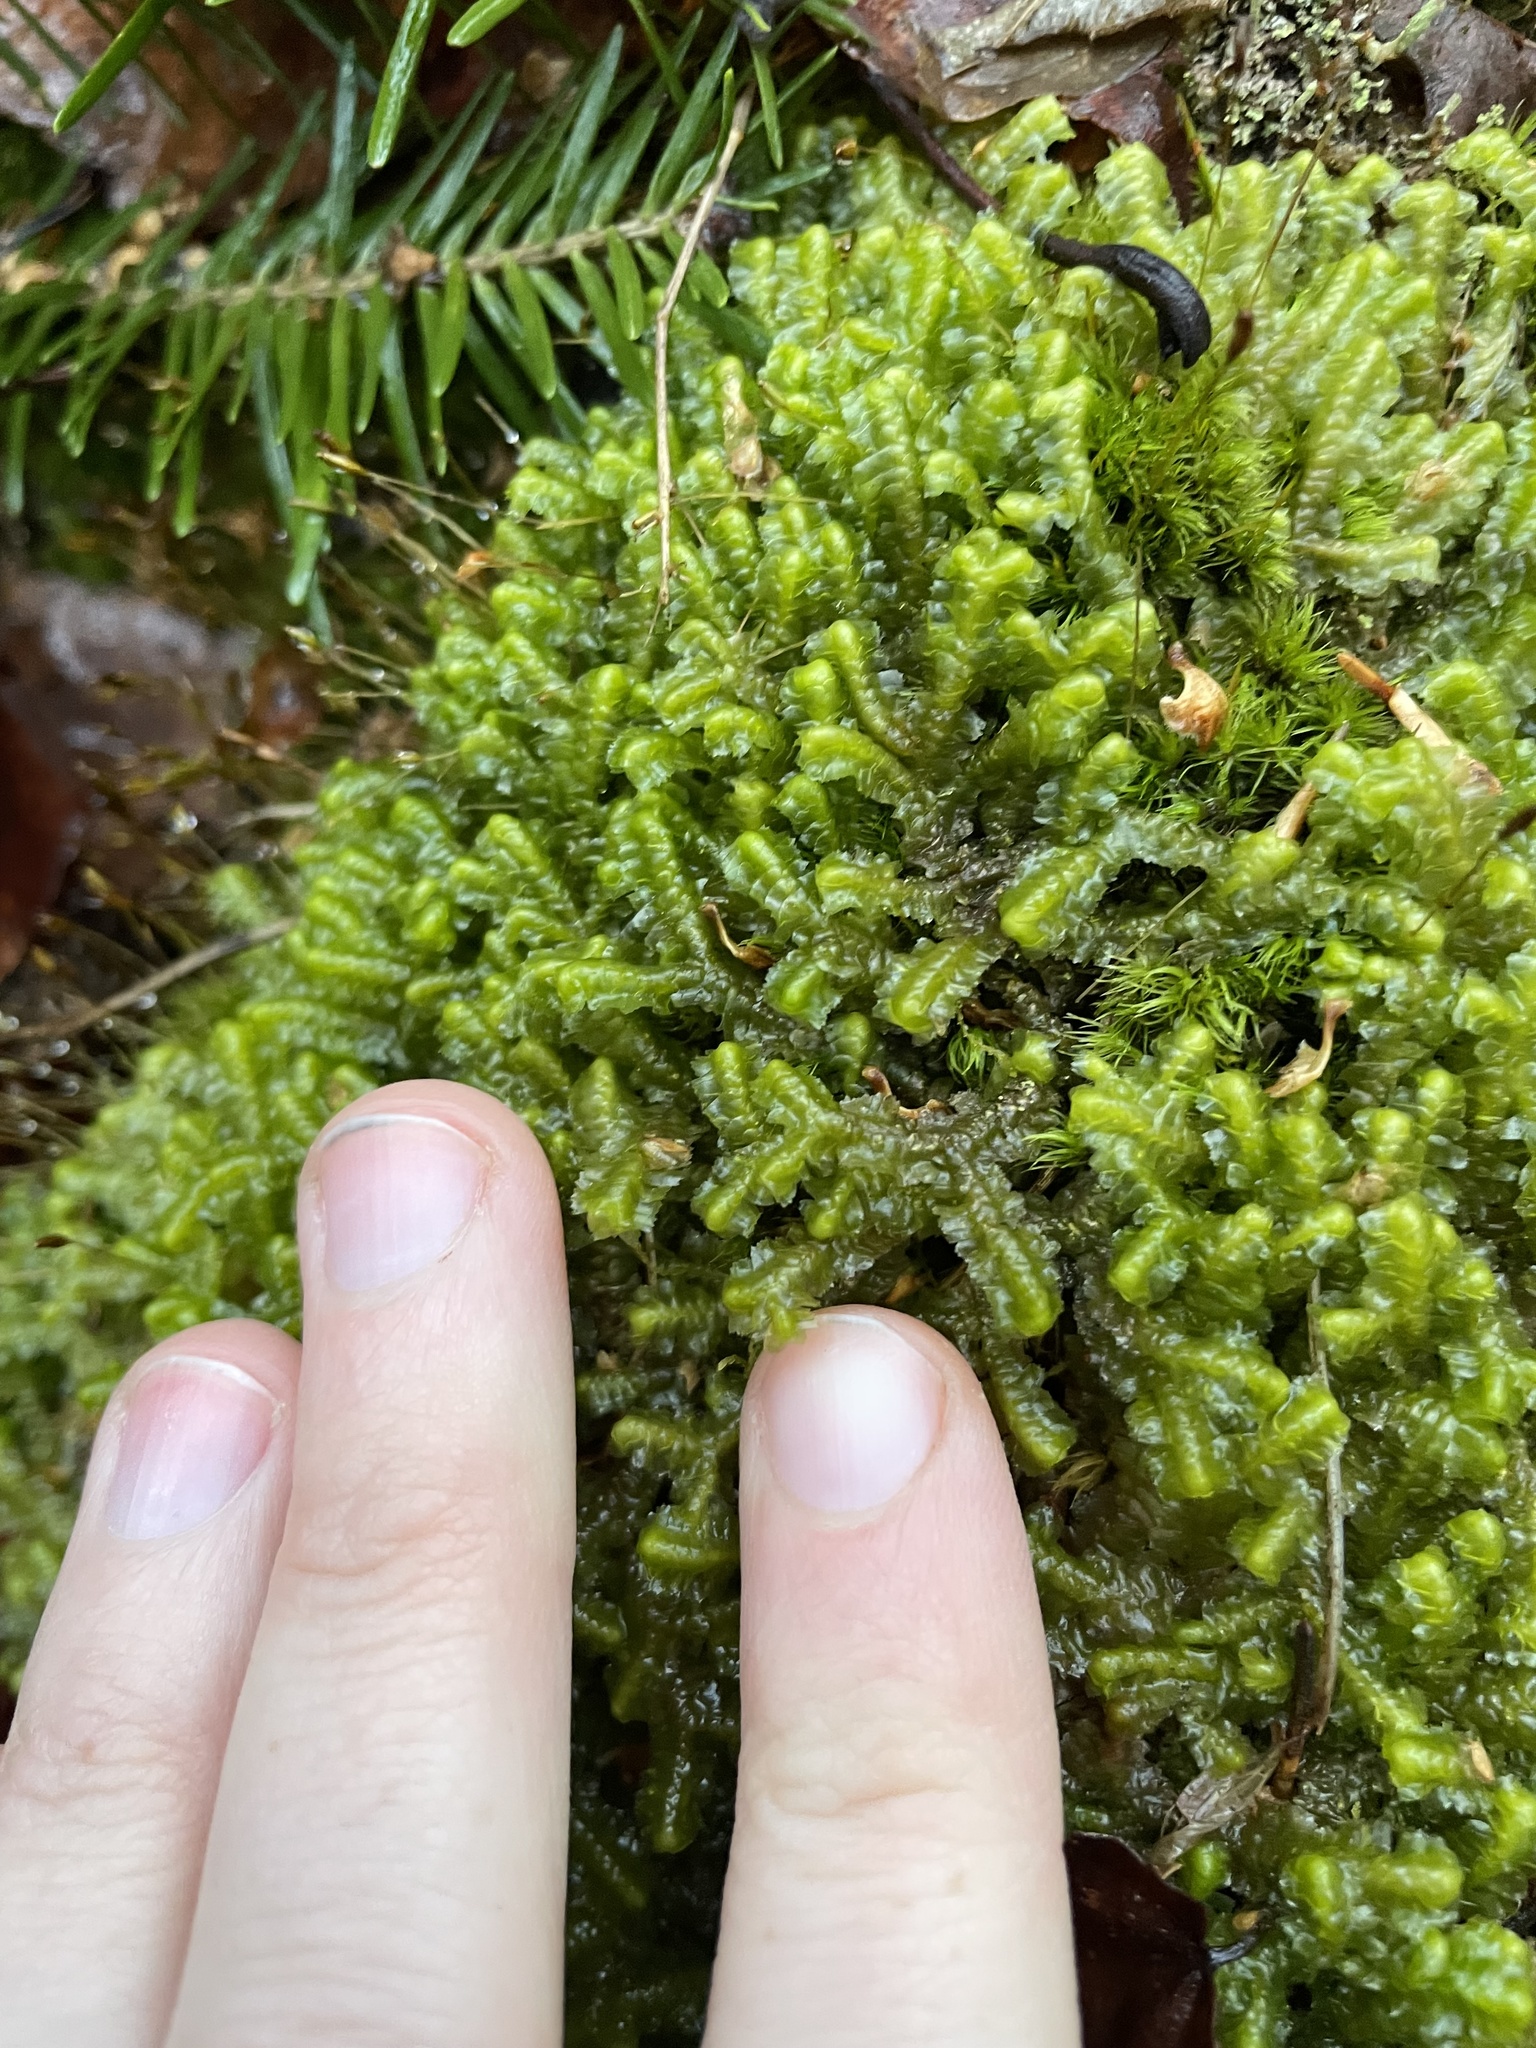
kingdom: Plantae
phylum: Marchantiophyta
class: Jungermanniopsida
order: Jungermanniales
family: Lepidoziaceae
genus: Bazzania
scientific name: Bazzania trilobata
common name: Three-lobed whipwort
